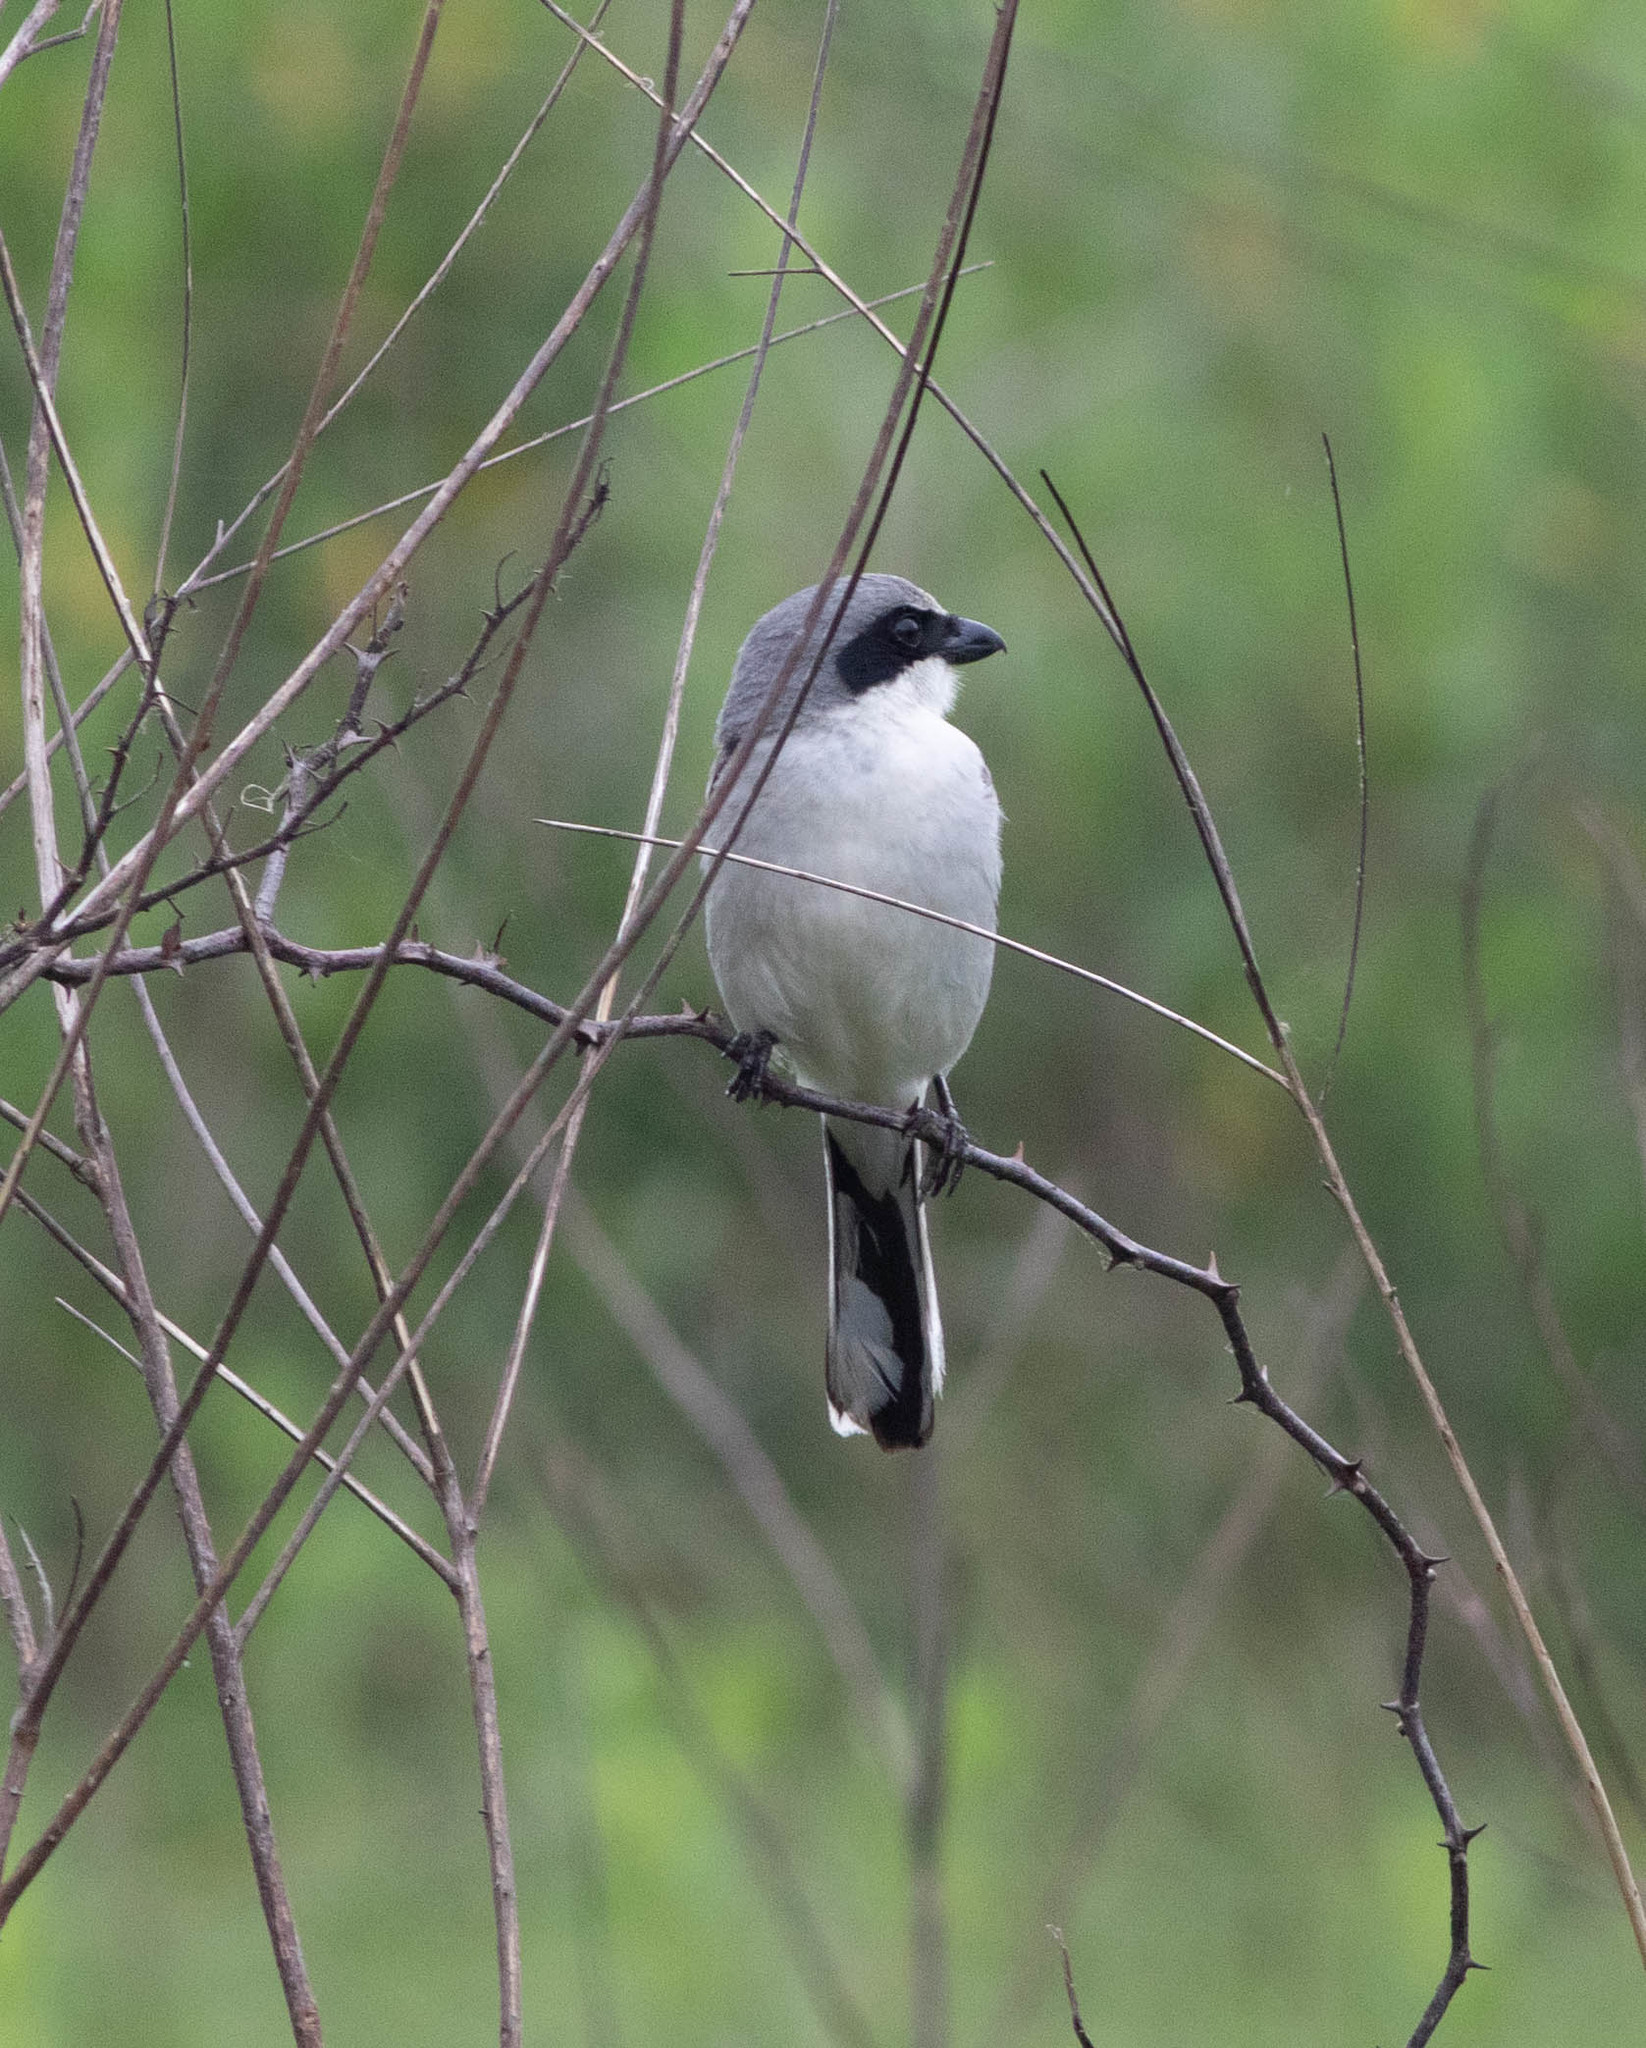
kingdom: Animalia
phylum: Chordata
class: Aves
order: Passeriformes
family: Laniidae
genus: Lanius
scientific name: Lanius ludovicianus
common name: Loggerhead shrike
